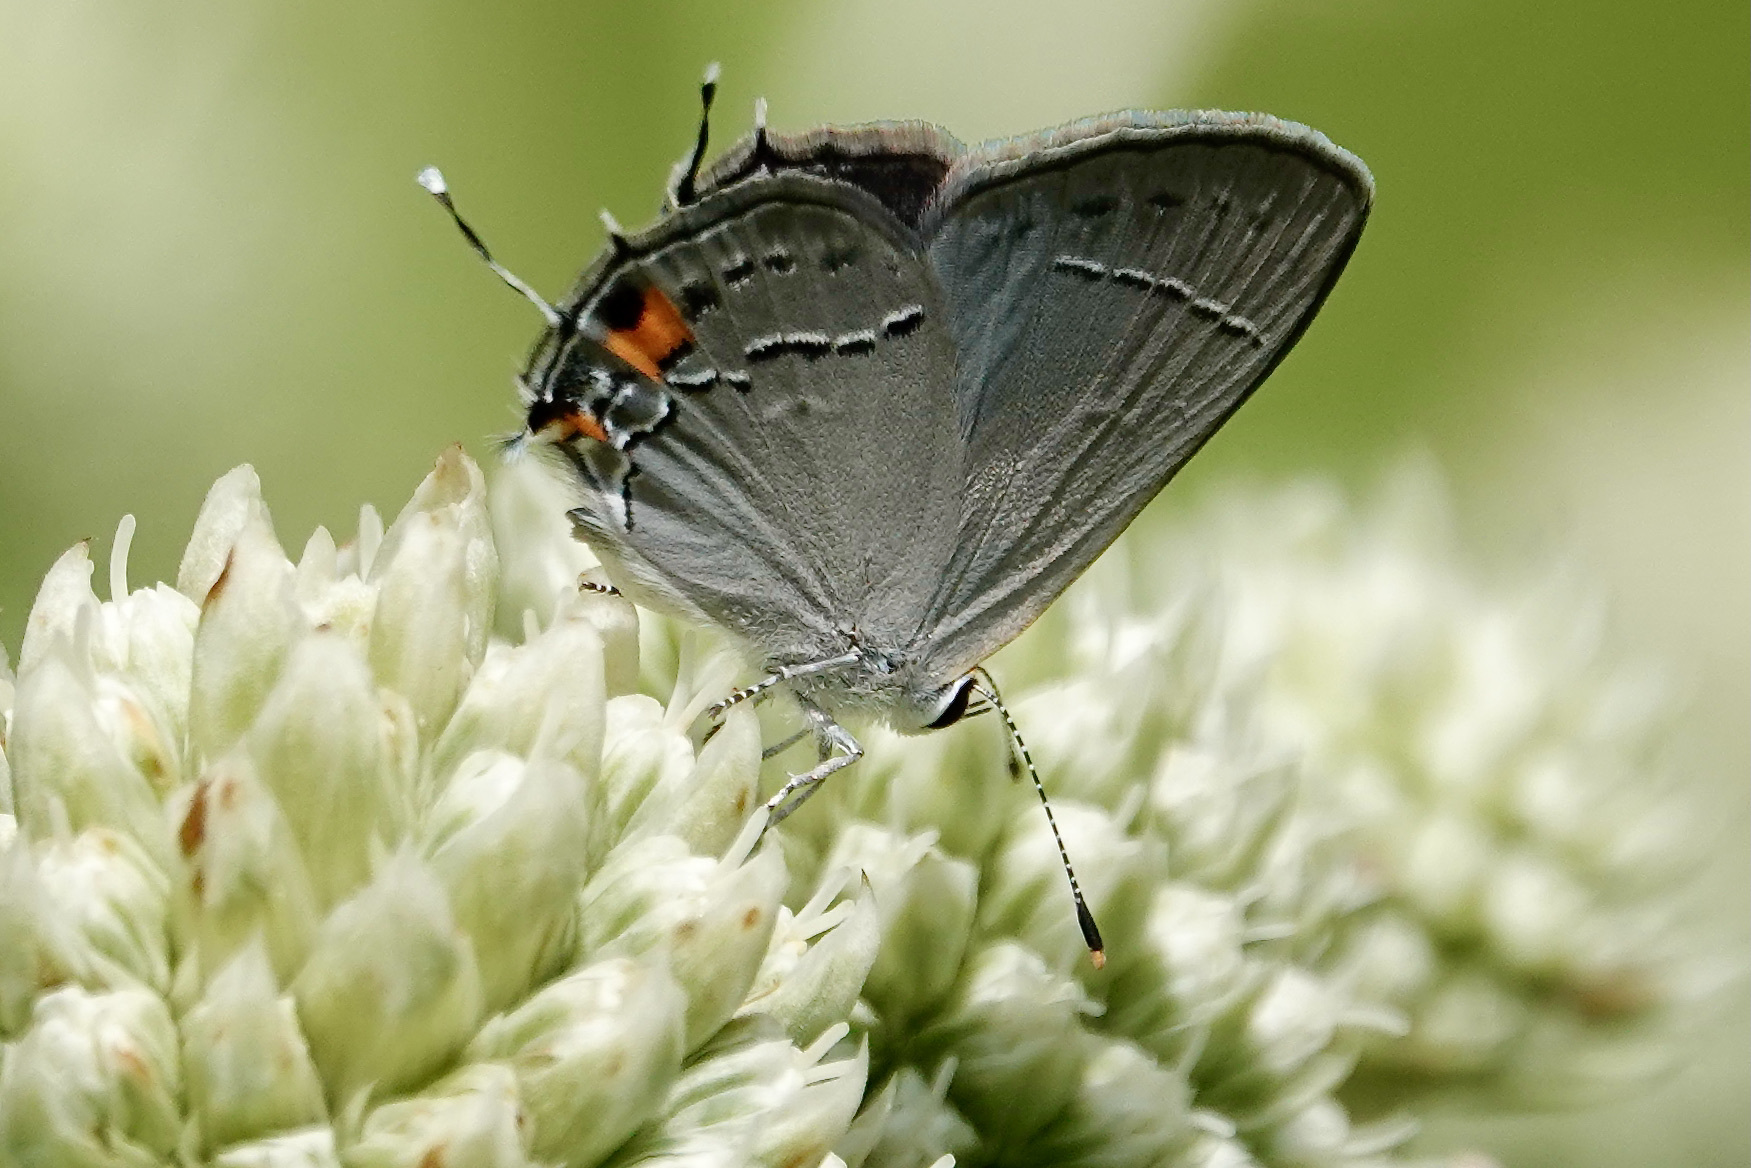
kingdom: Animalia
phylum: Arthropoda
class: Insecta
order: Lepidoptera
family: Lycaenidae
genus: Strymon
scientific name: Strymon melinus
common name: Gray hairstreak
